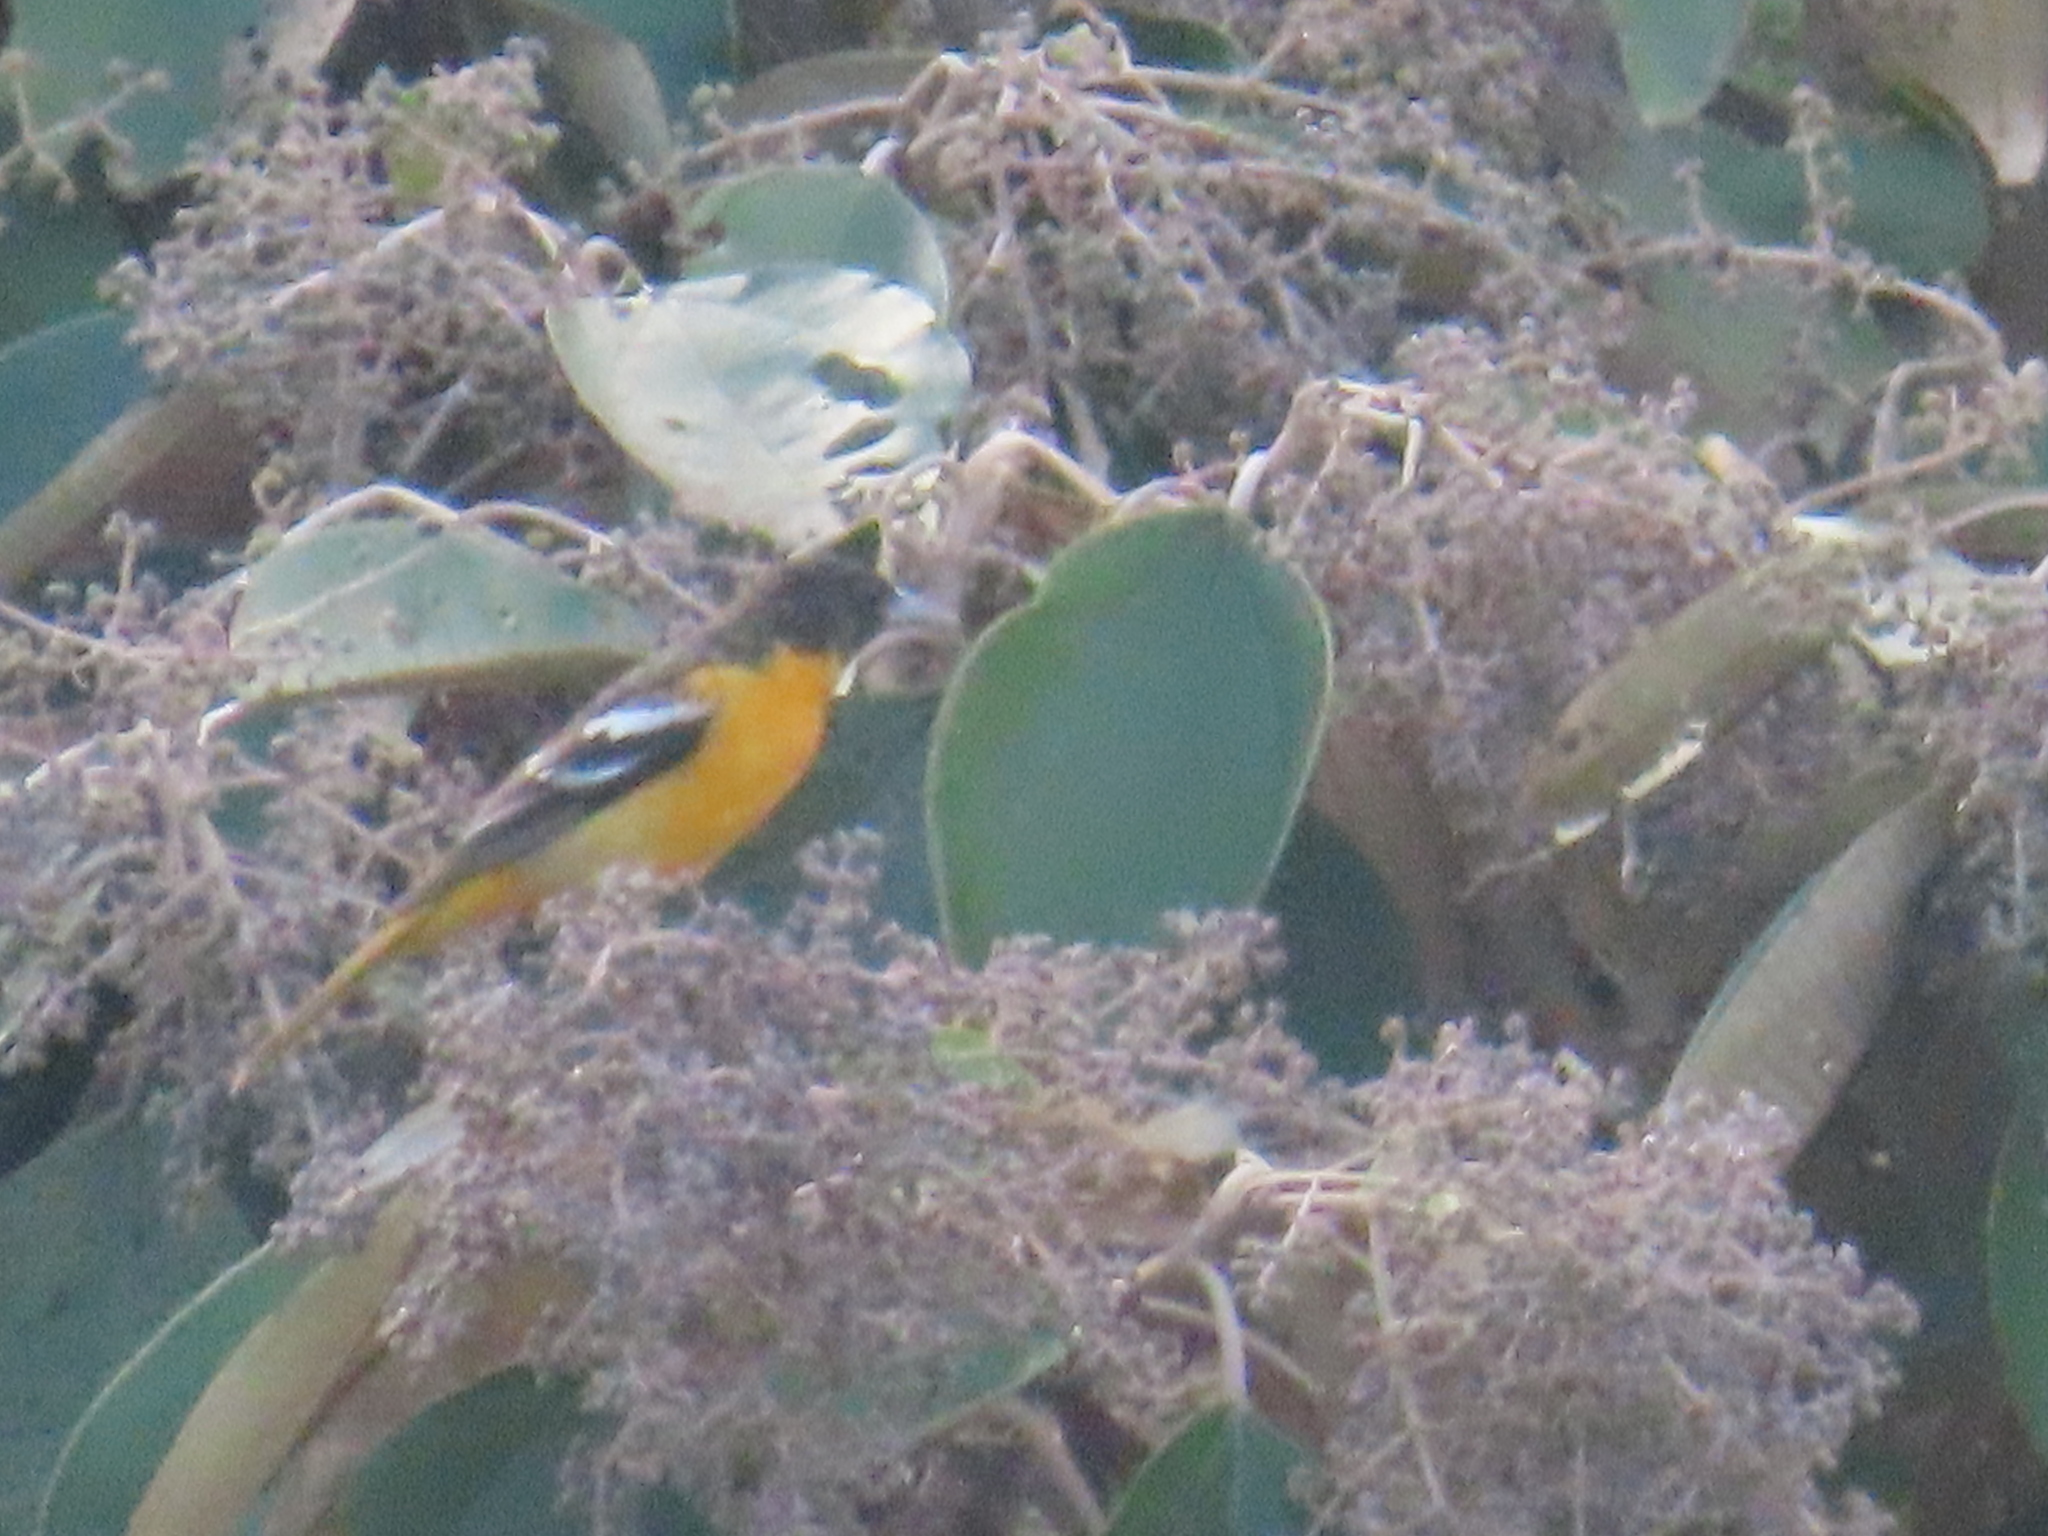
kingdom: Animalia
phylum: Chordata
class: Aves
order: Passeriformes
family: Icteridae
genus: Icterus
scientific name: Icterus galbula
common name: Baltimore oriole
